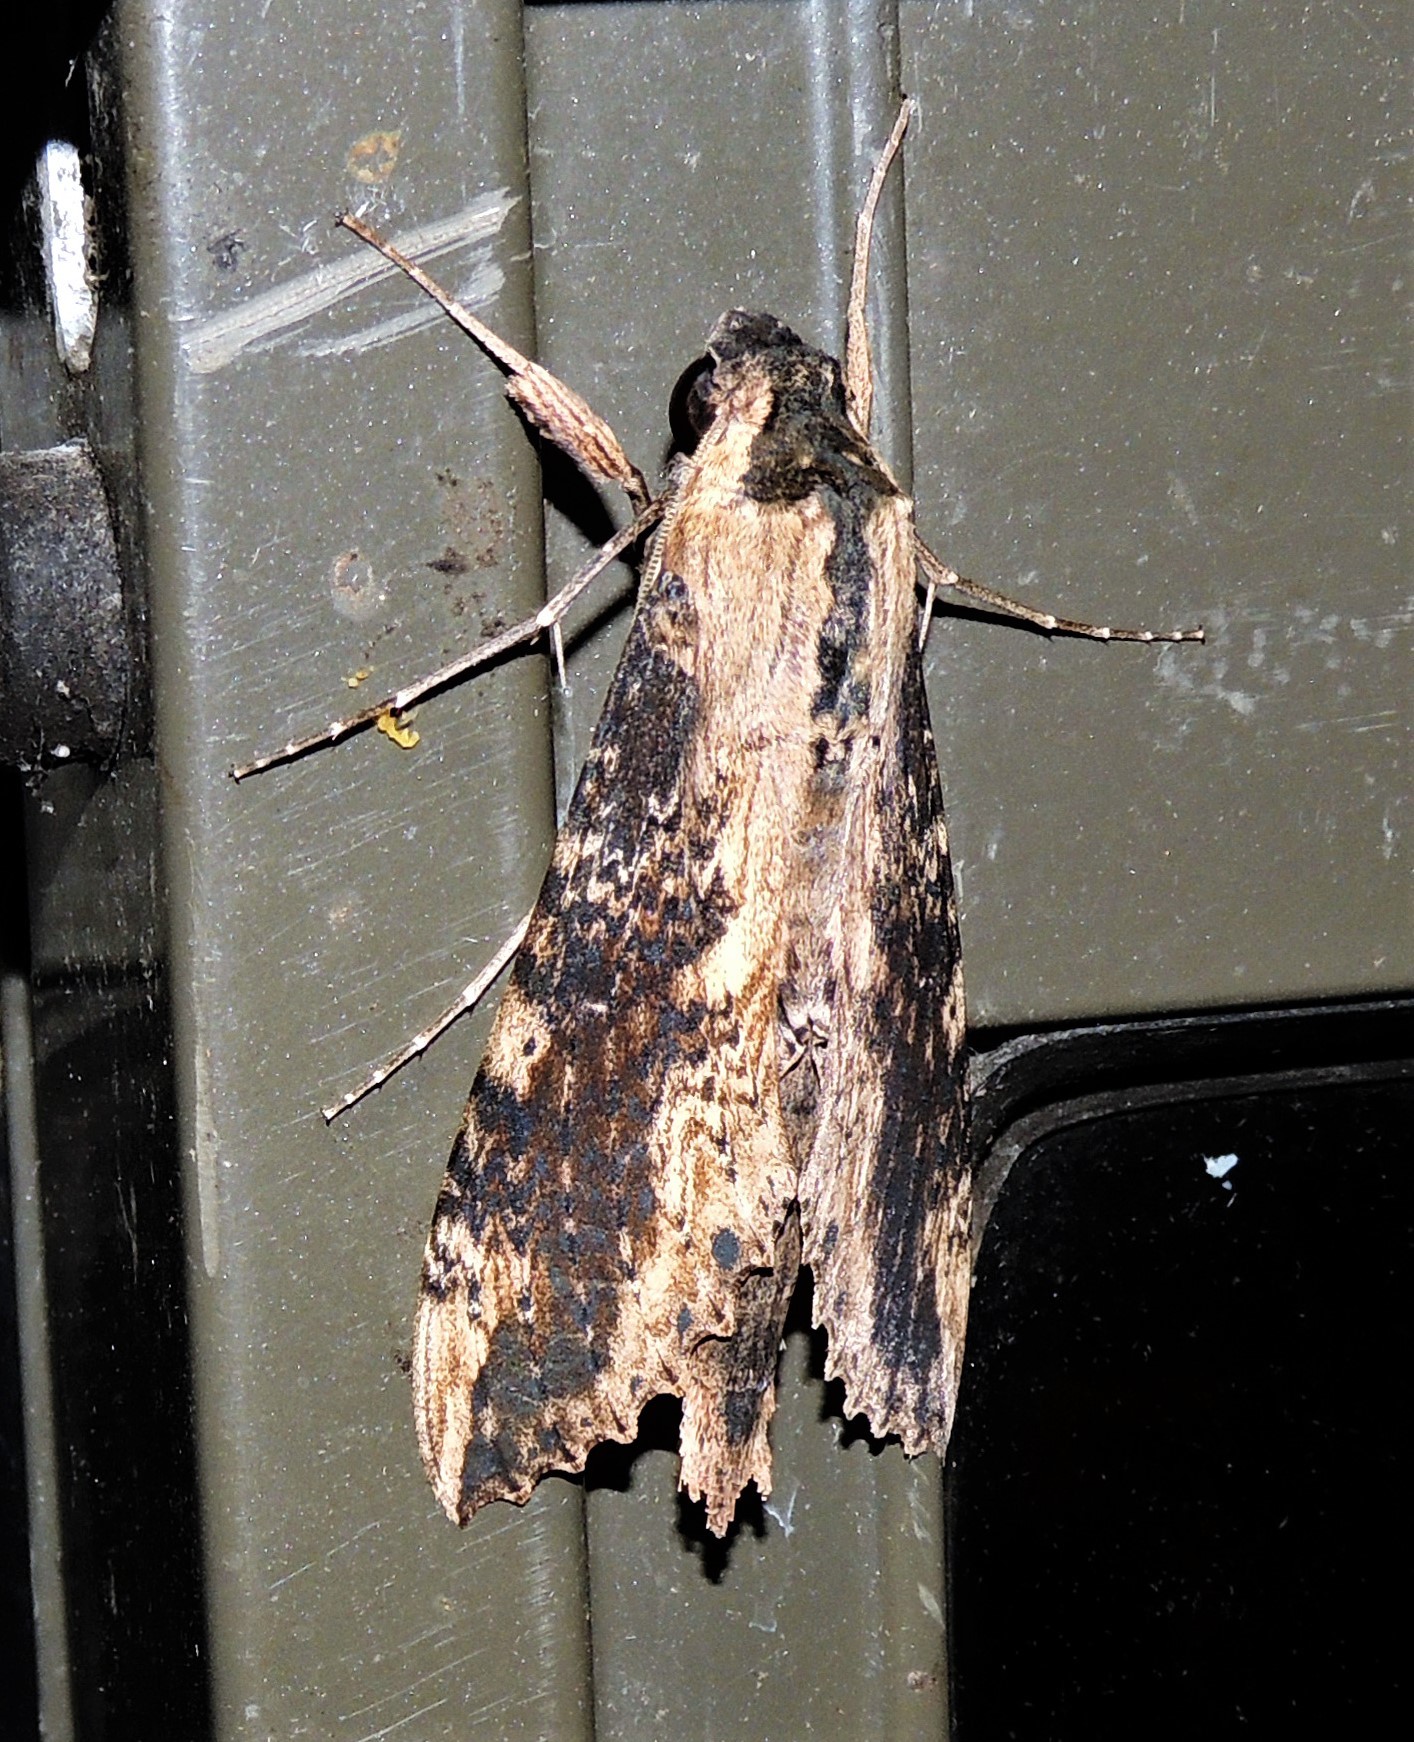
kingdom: Animalia
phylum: Arthropoda
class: Insecta
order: Lepidoptera
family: Sphingidae
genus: Erinnyis
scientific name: Erinnyis crameri
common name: Cramer's sphinx
